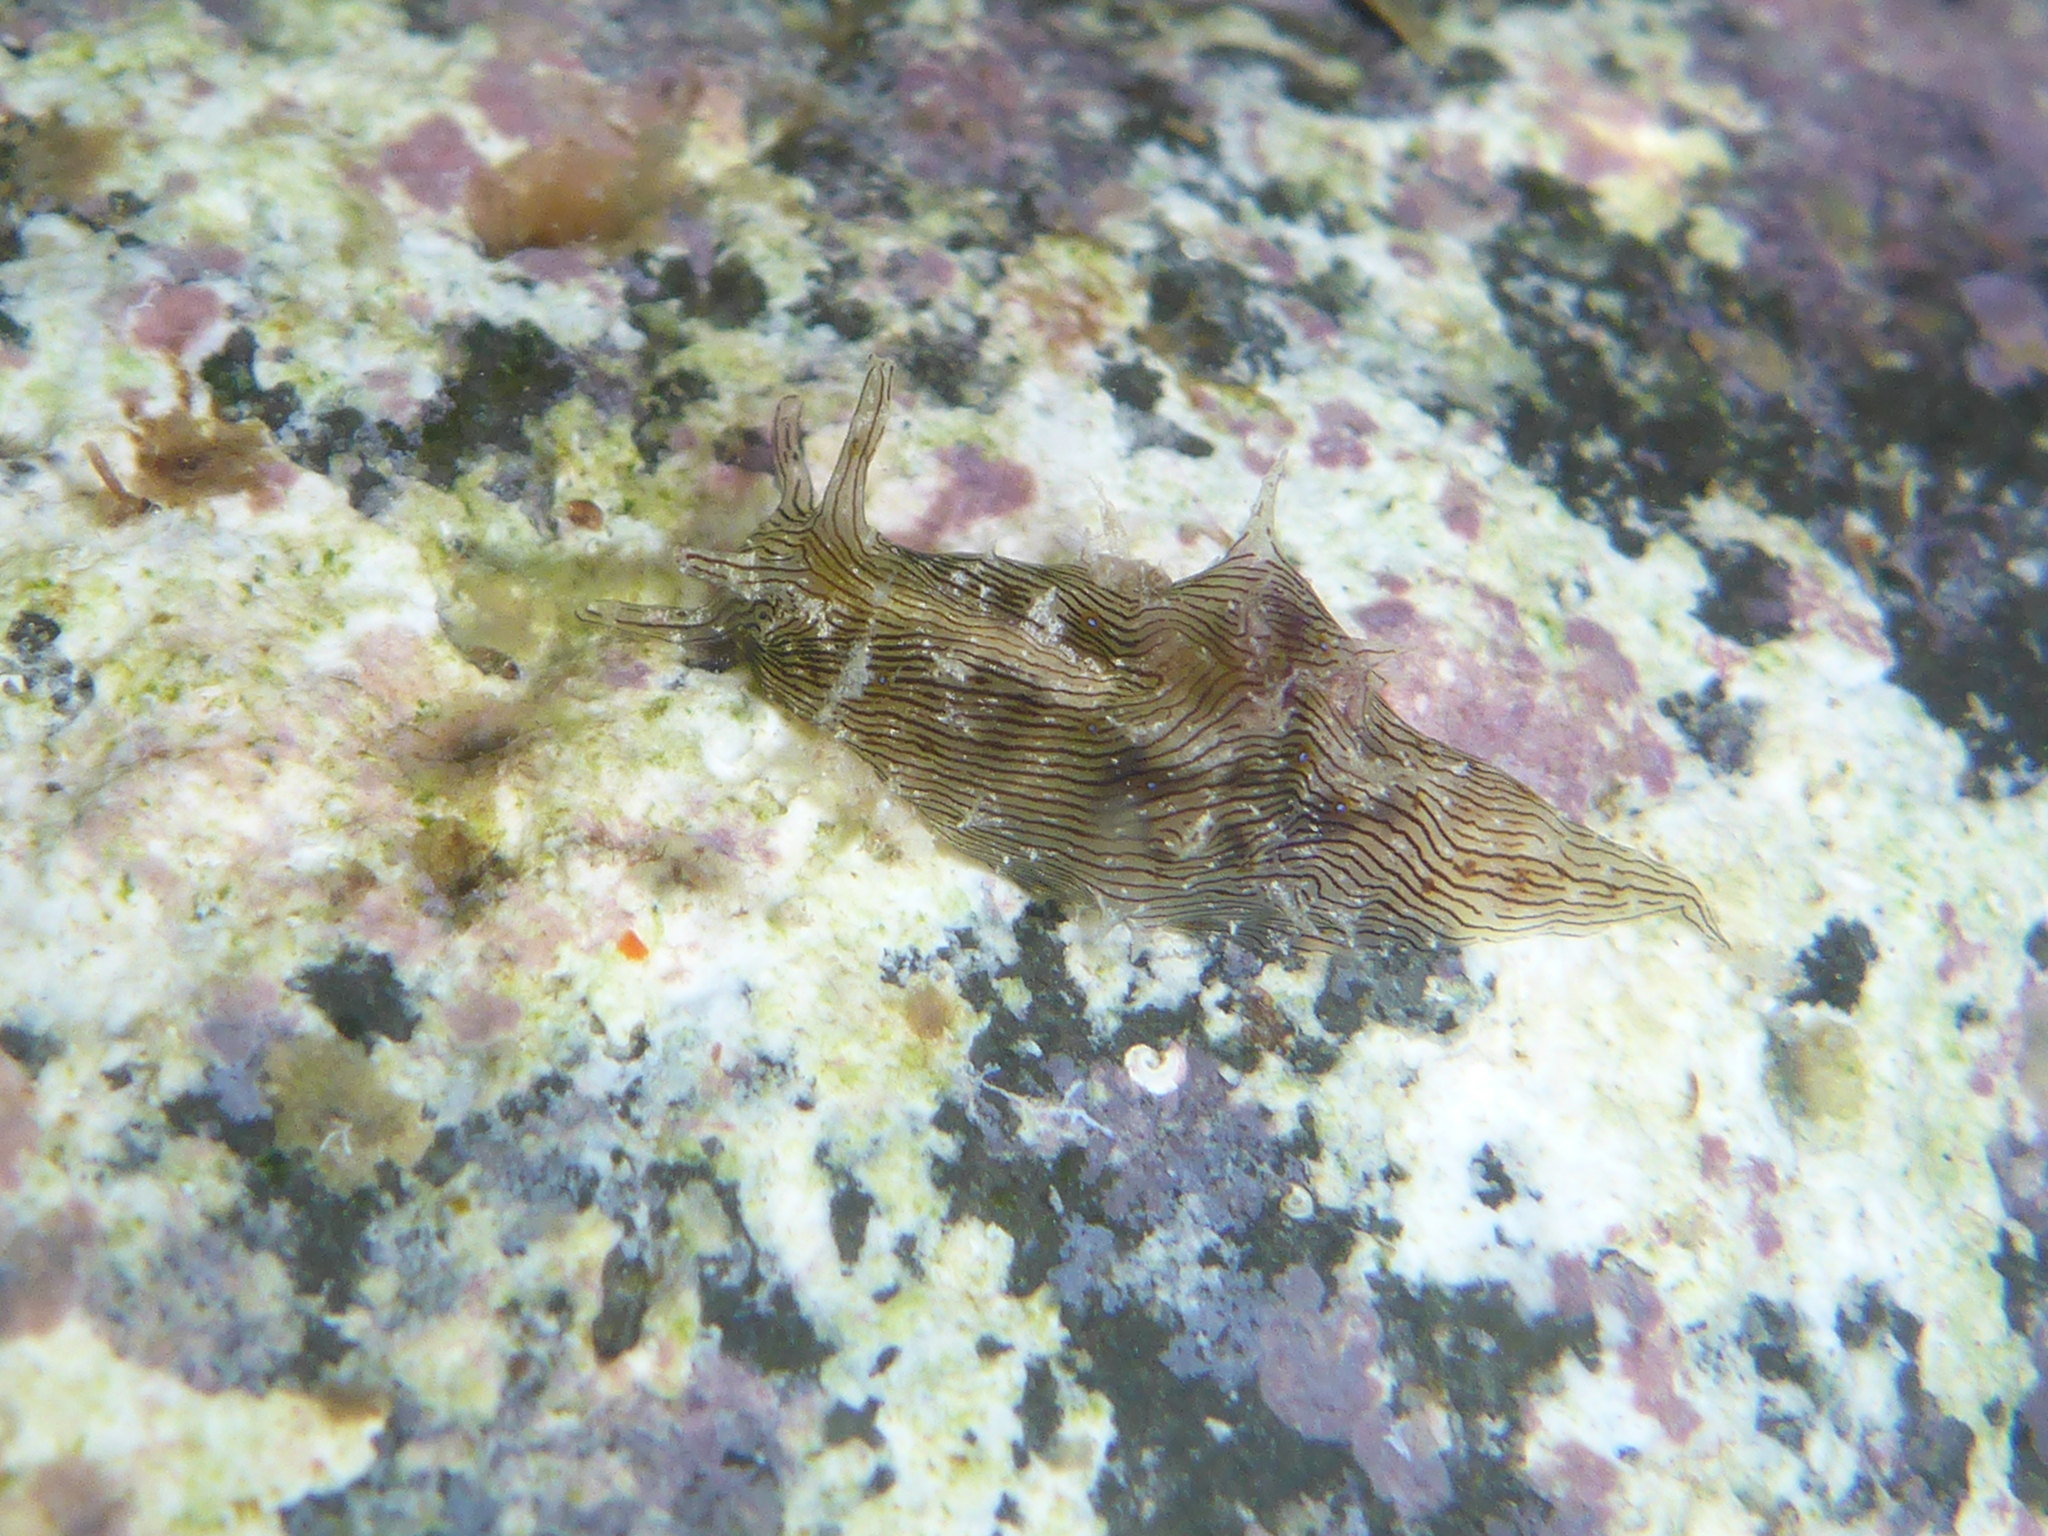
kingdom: Animalia
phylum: Mollusca
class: Gastropoda
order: Aplysiida
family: Aplysiidae
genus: Stylocheilus
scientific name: Stylocheilus striatus
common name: Striated seahare
